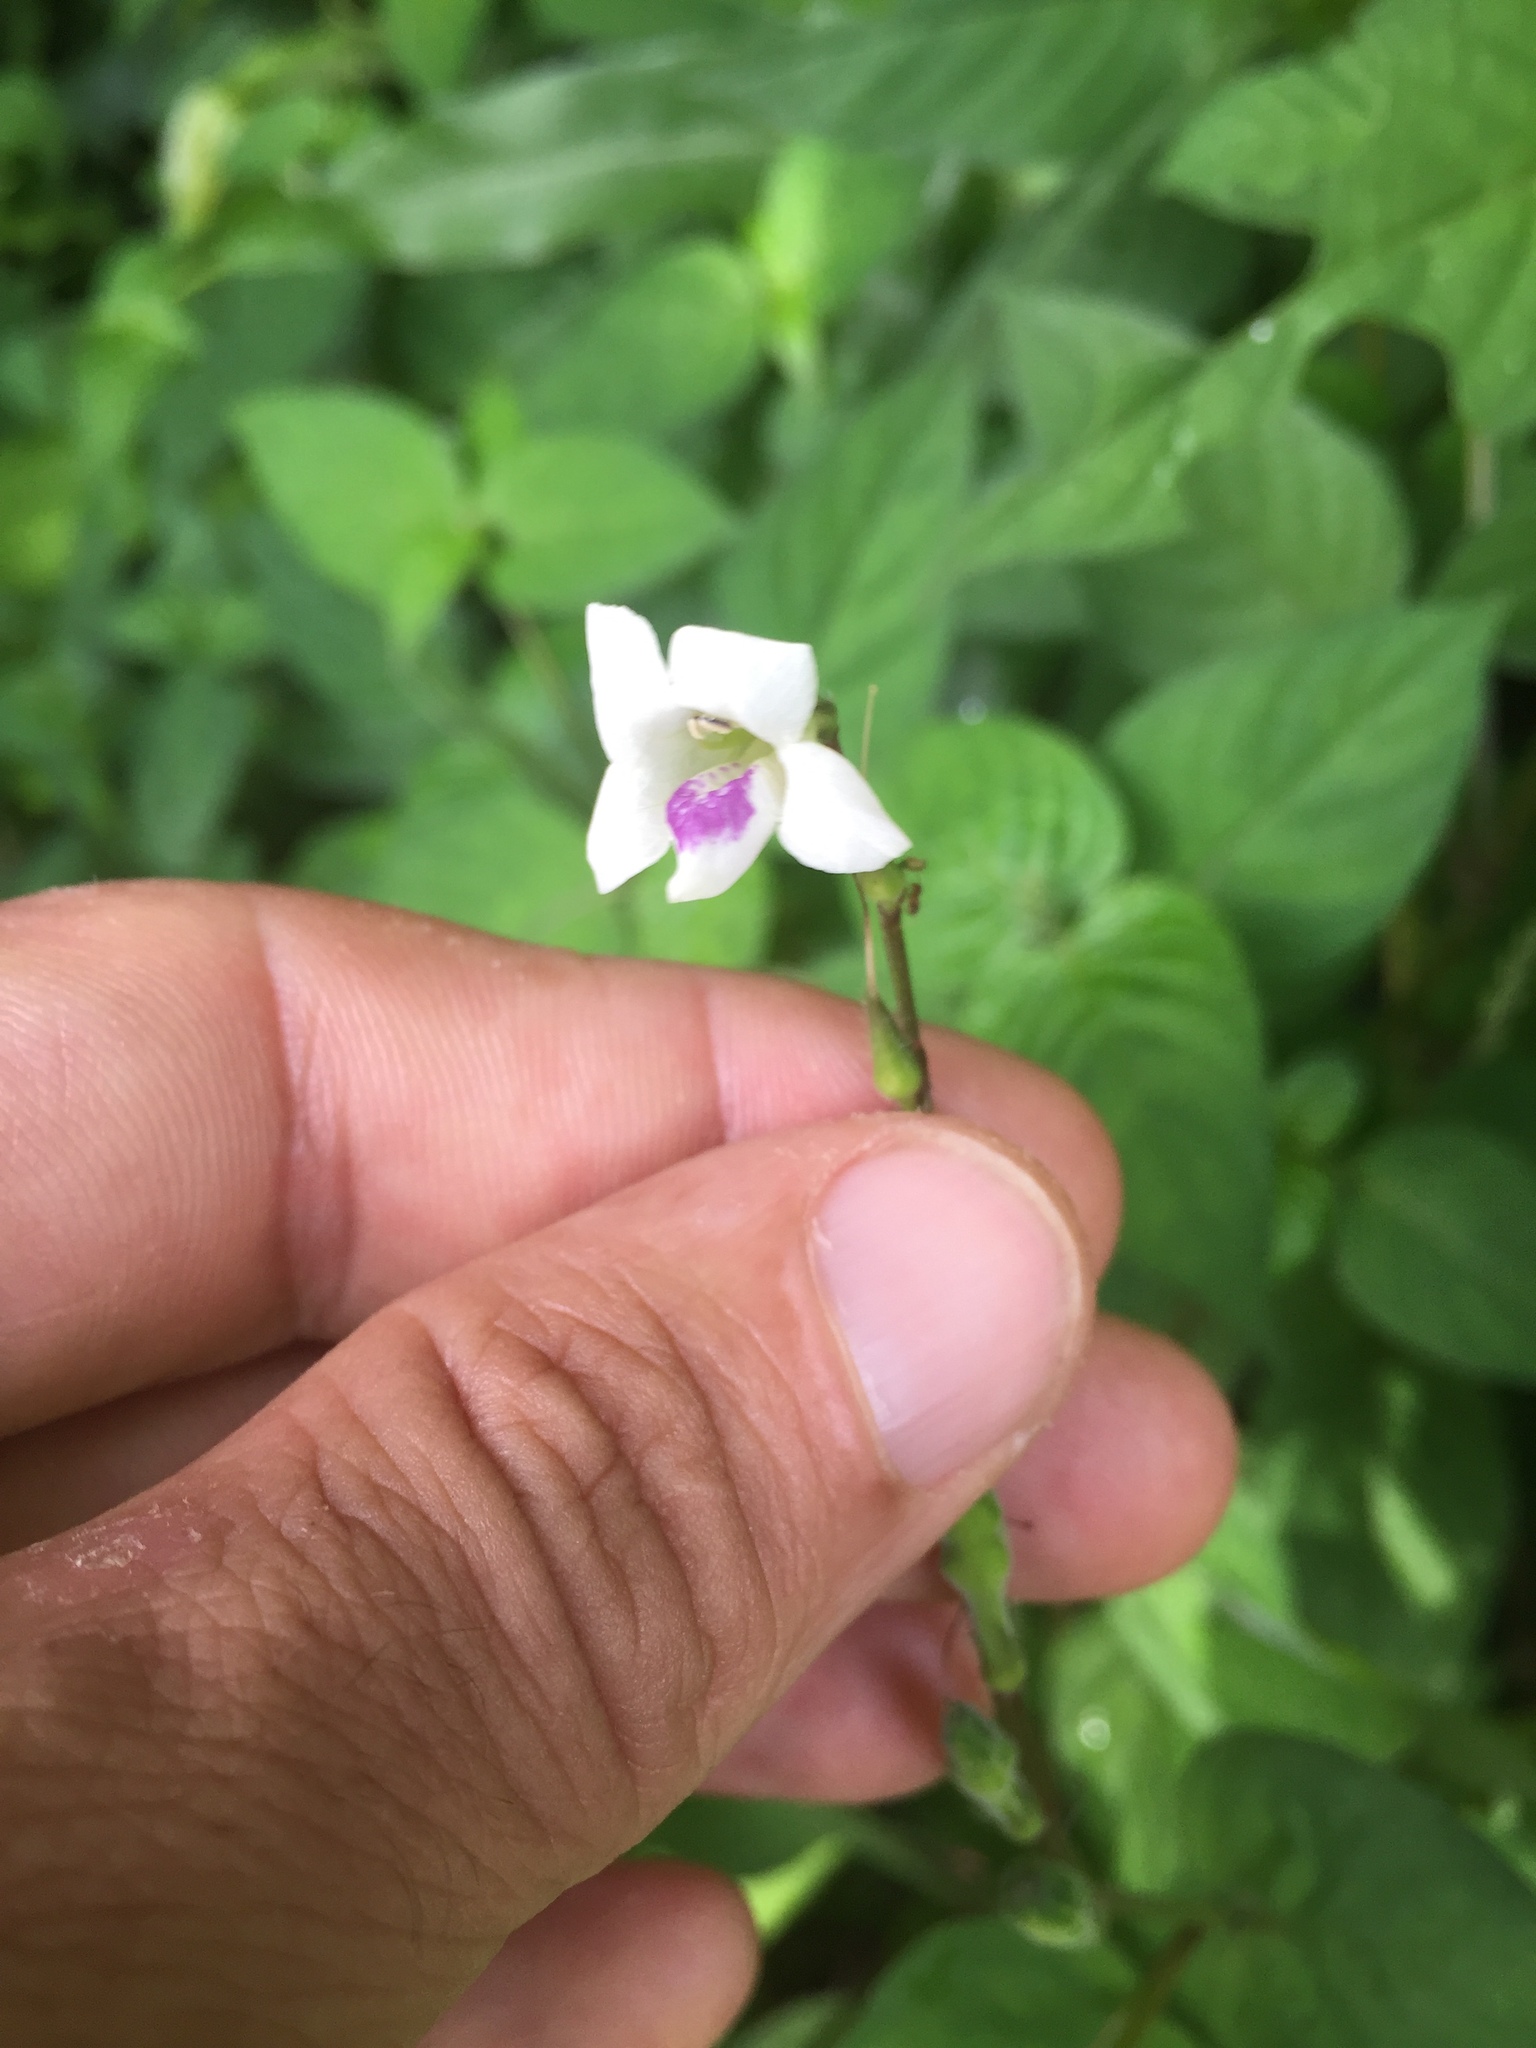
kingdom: Plantae
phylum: Tracheophyta
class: Magnoliopsida
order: Lamiales
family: Acanthaceae
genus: Asystasia
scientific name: Asystasia gangetica
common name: Chinese violet
